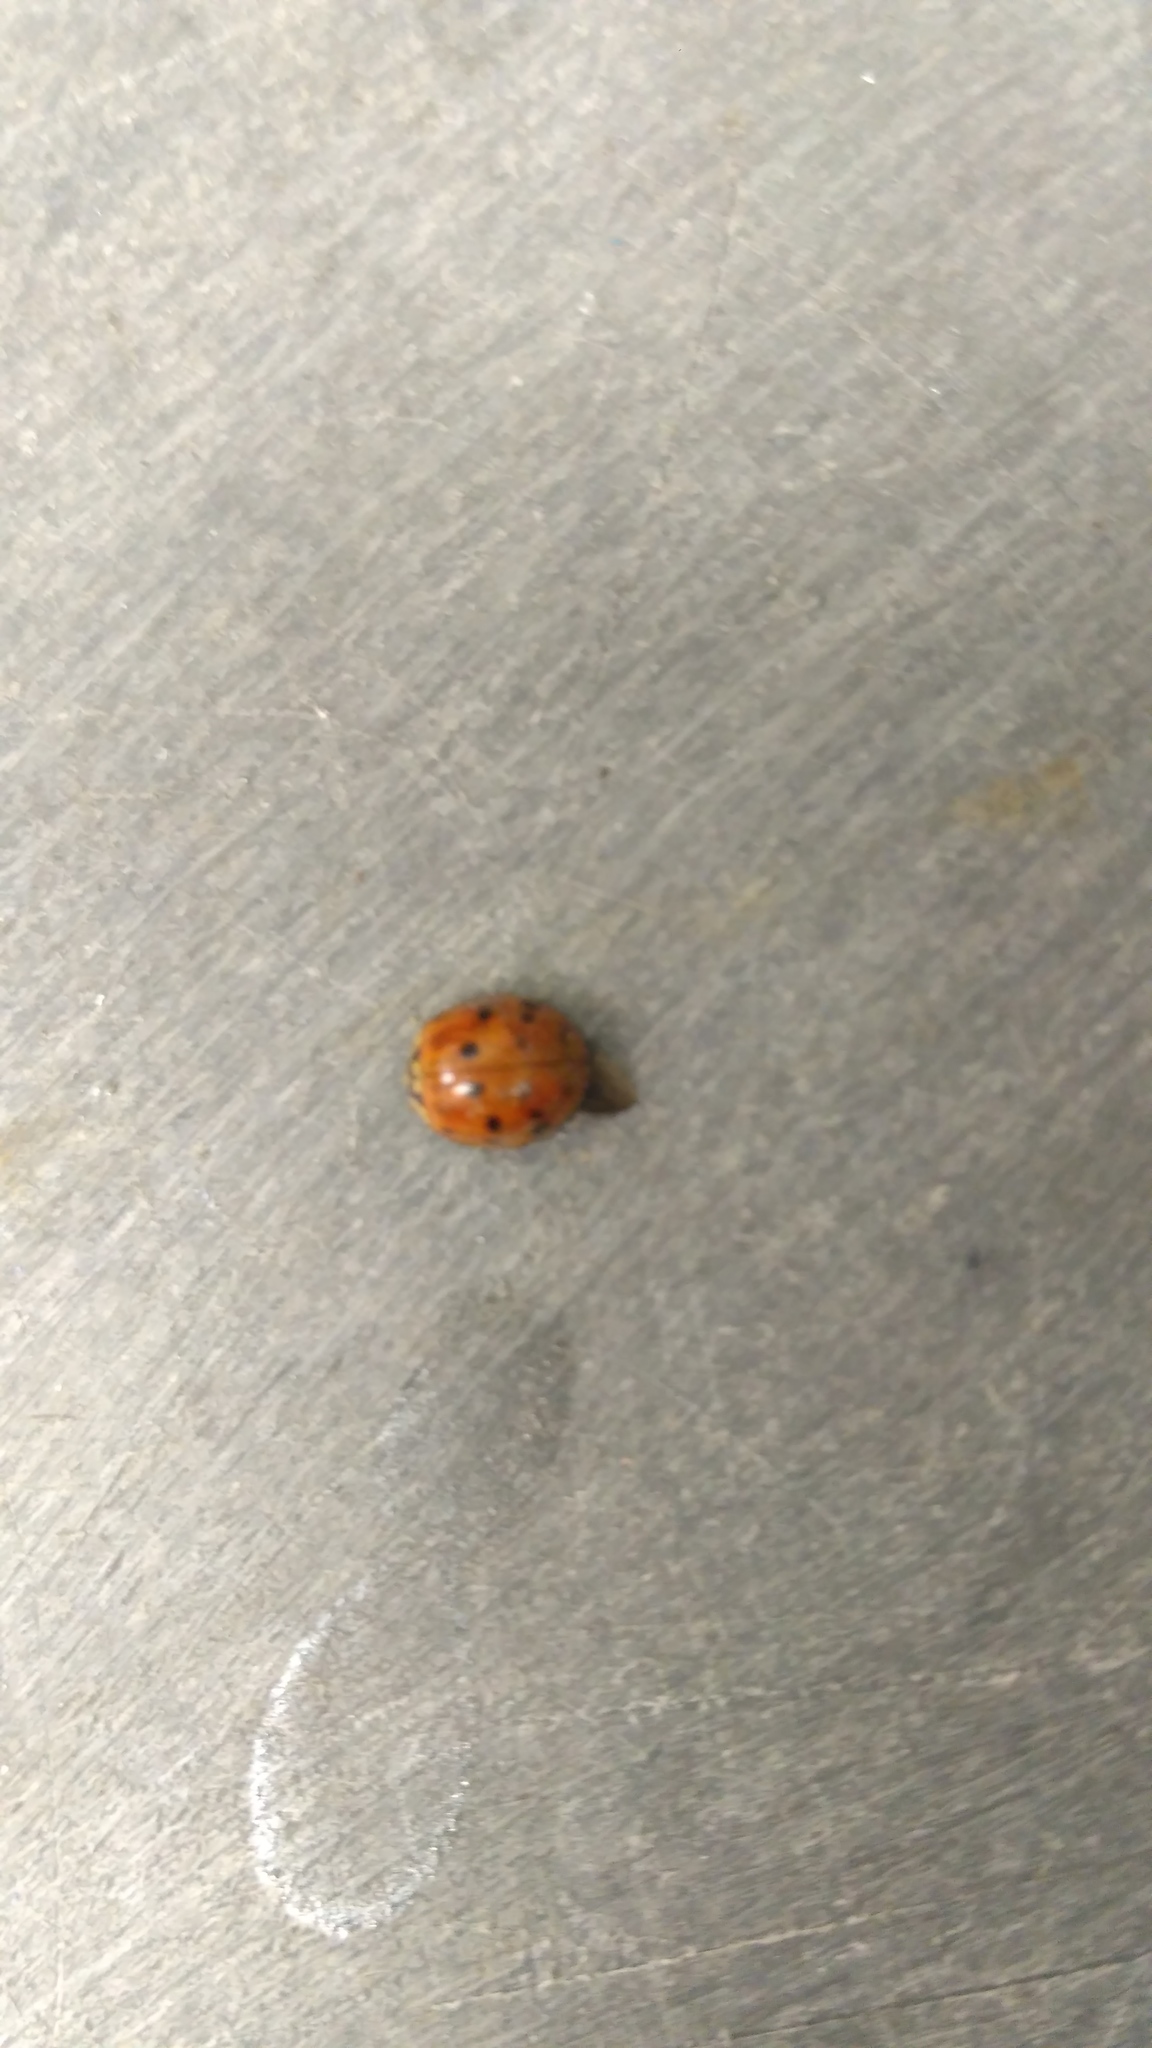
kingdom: Animalia
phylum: Arthropoda
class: Insecta
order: Coleoptera
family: Coccinellidae
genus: Harmonia
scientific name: Harmonia axyridis
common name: Harlequin ladybird
